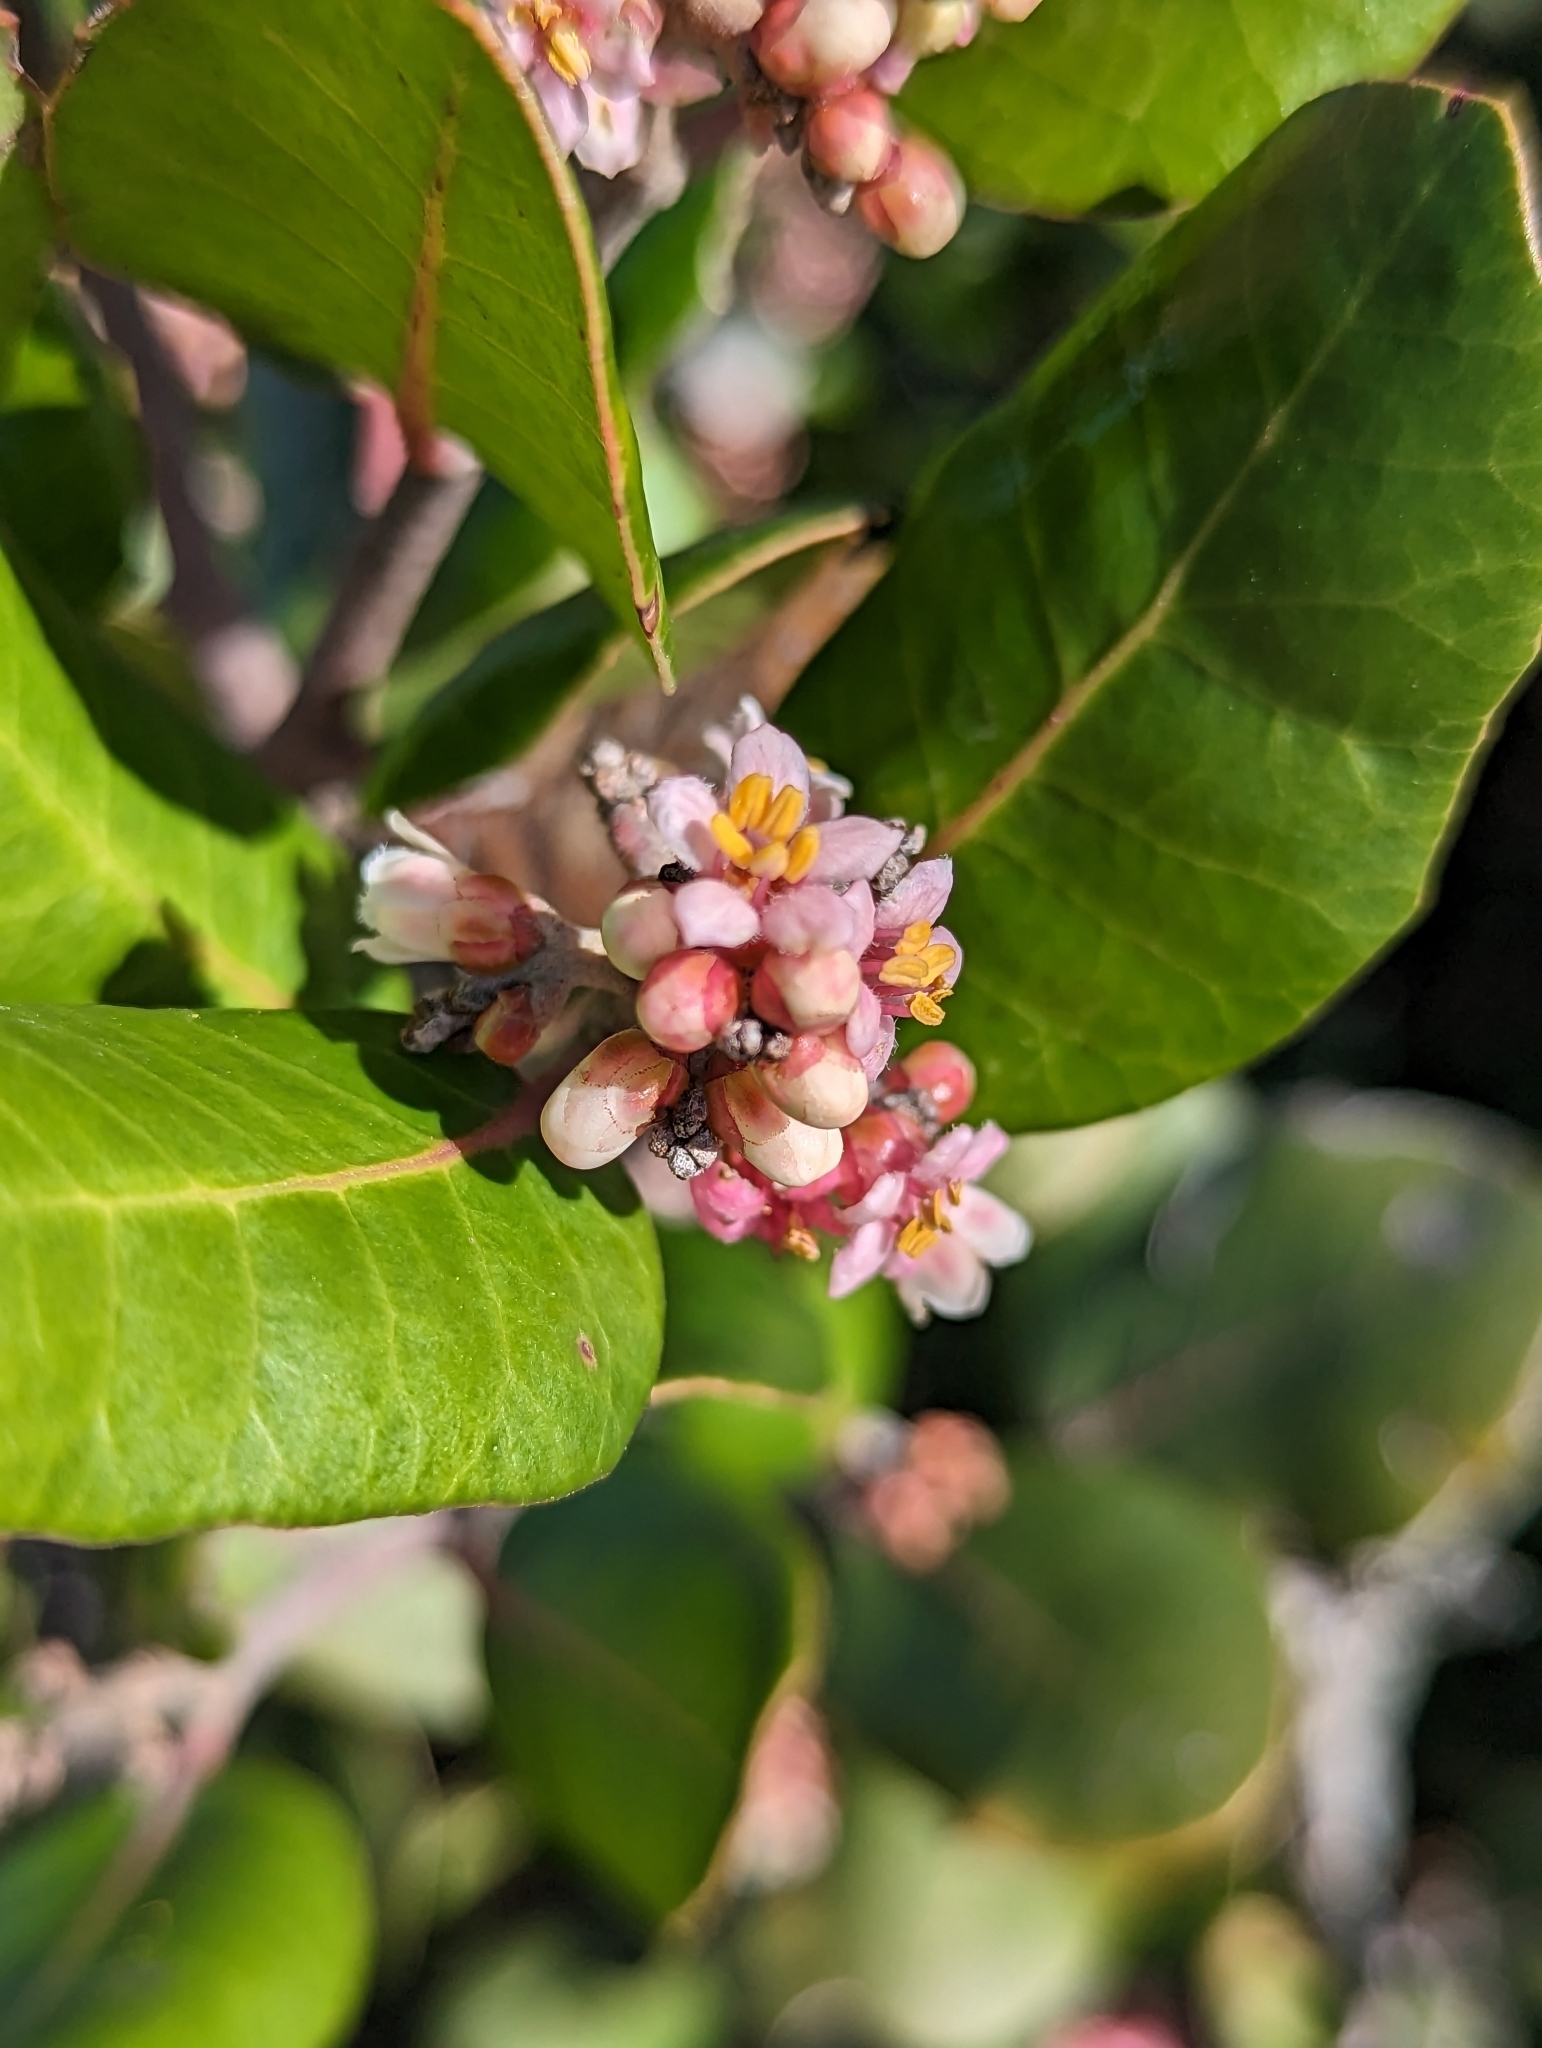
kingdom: Plantae
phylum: Tracheophyta
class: Magnoliopsida
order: Sapindales
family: Anacardiaceae
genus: Rhus
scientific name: Rhus integrifolia
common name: Lemonade sumac
